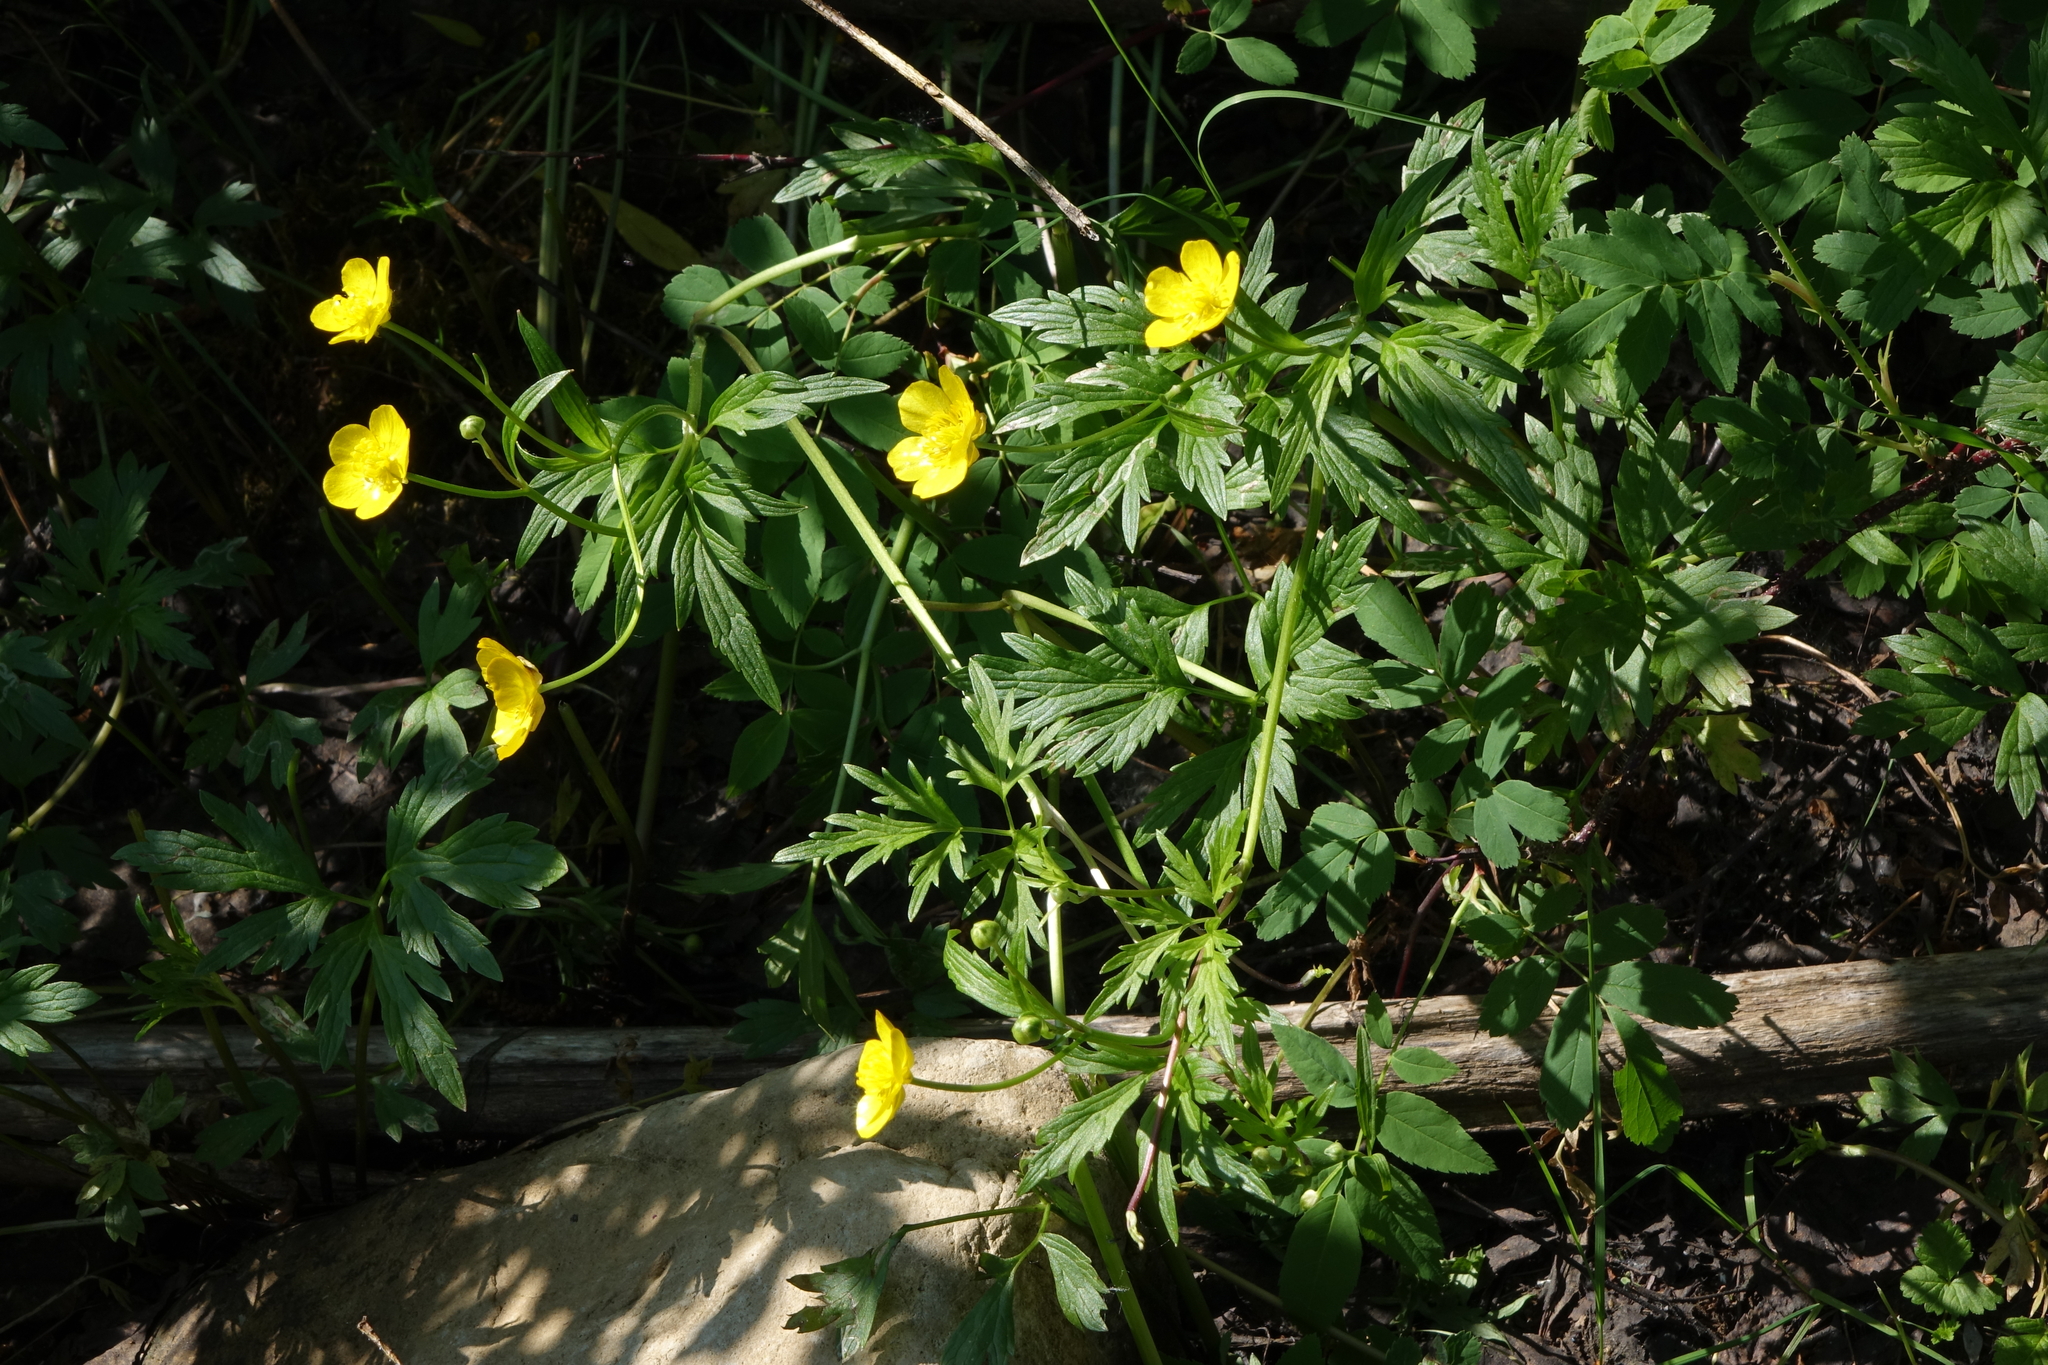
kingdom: Plantae
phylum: Tracheophyta
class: Magnoliopsida
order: Ranunculales
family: Ranunculaceae
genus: Ranunculus
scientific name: Ranunculus repens
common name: Creeping buttercup
